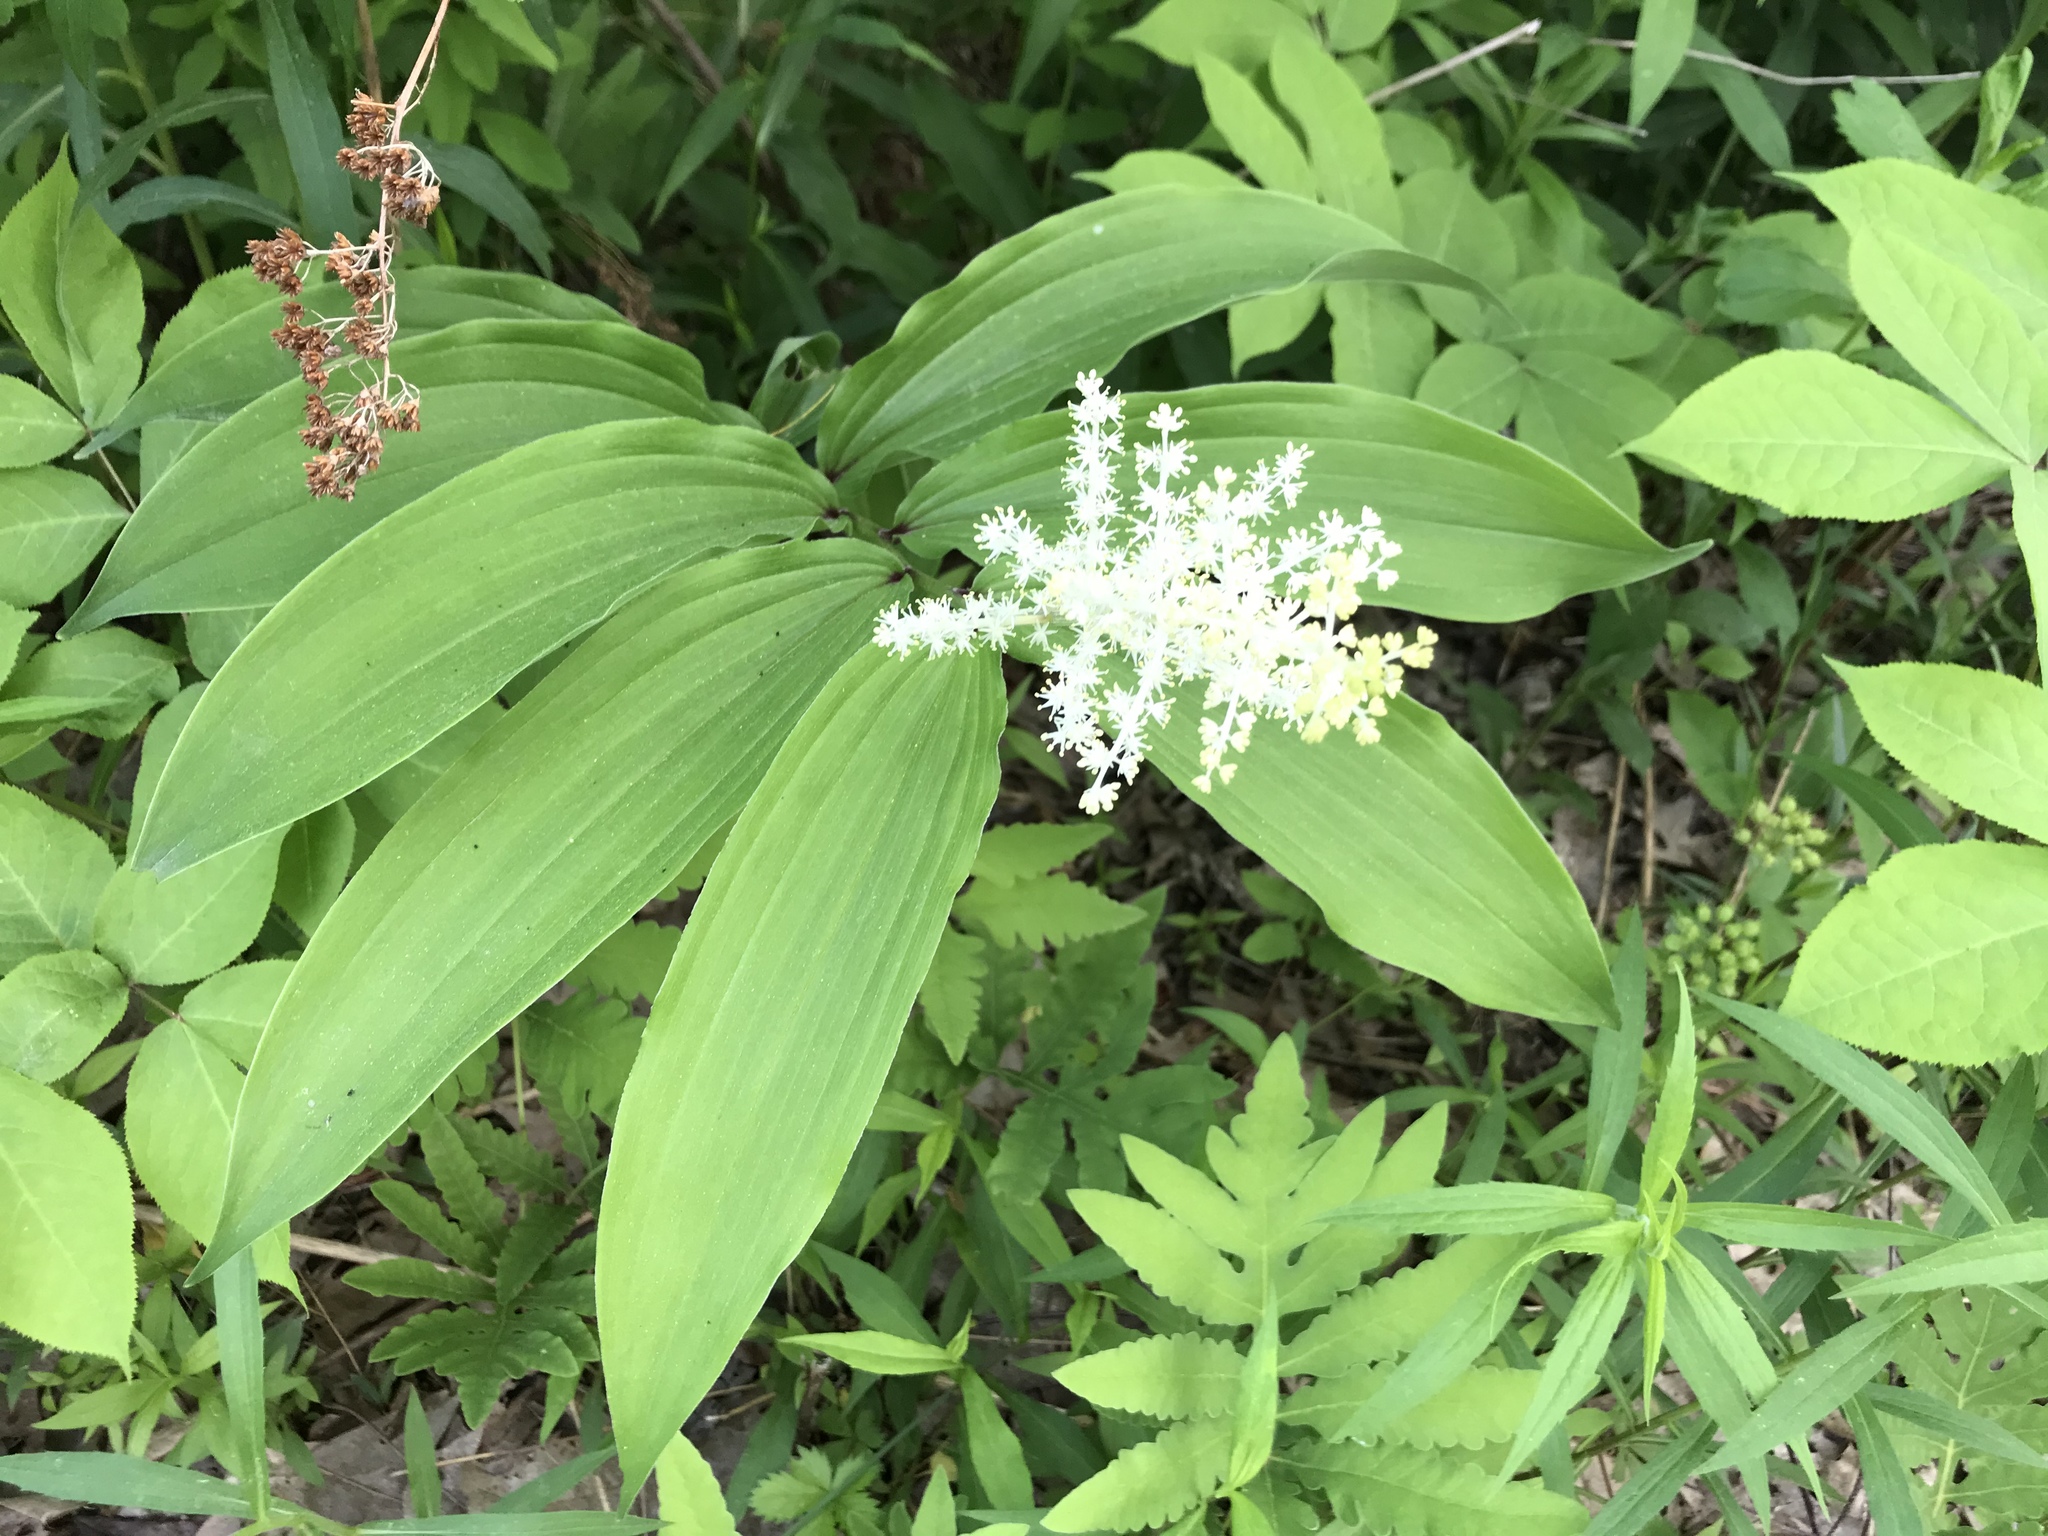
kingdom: Plantae
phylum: Tracheophyta
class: Liliopsida
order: Asparagales
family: Asparagaceae
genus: Maianthemum
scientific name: Maianthemum racemosum
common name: False spikenard
